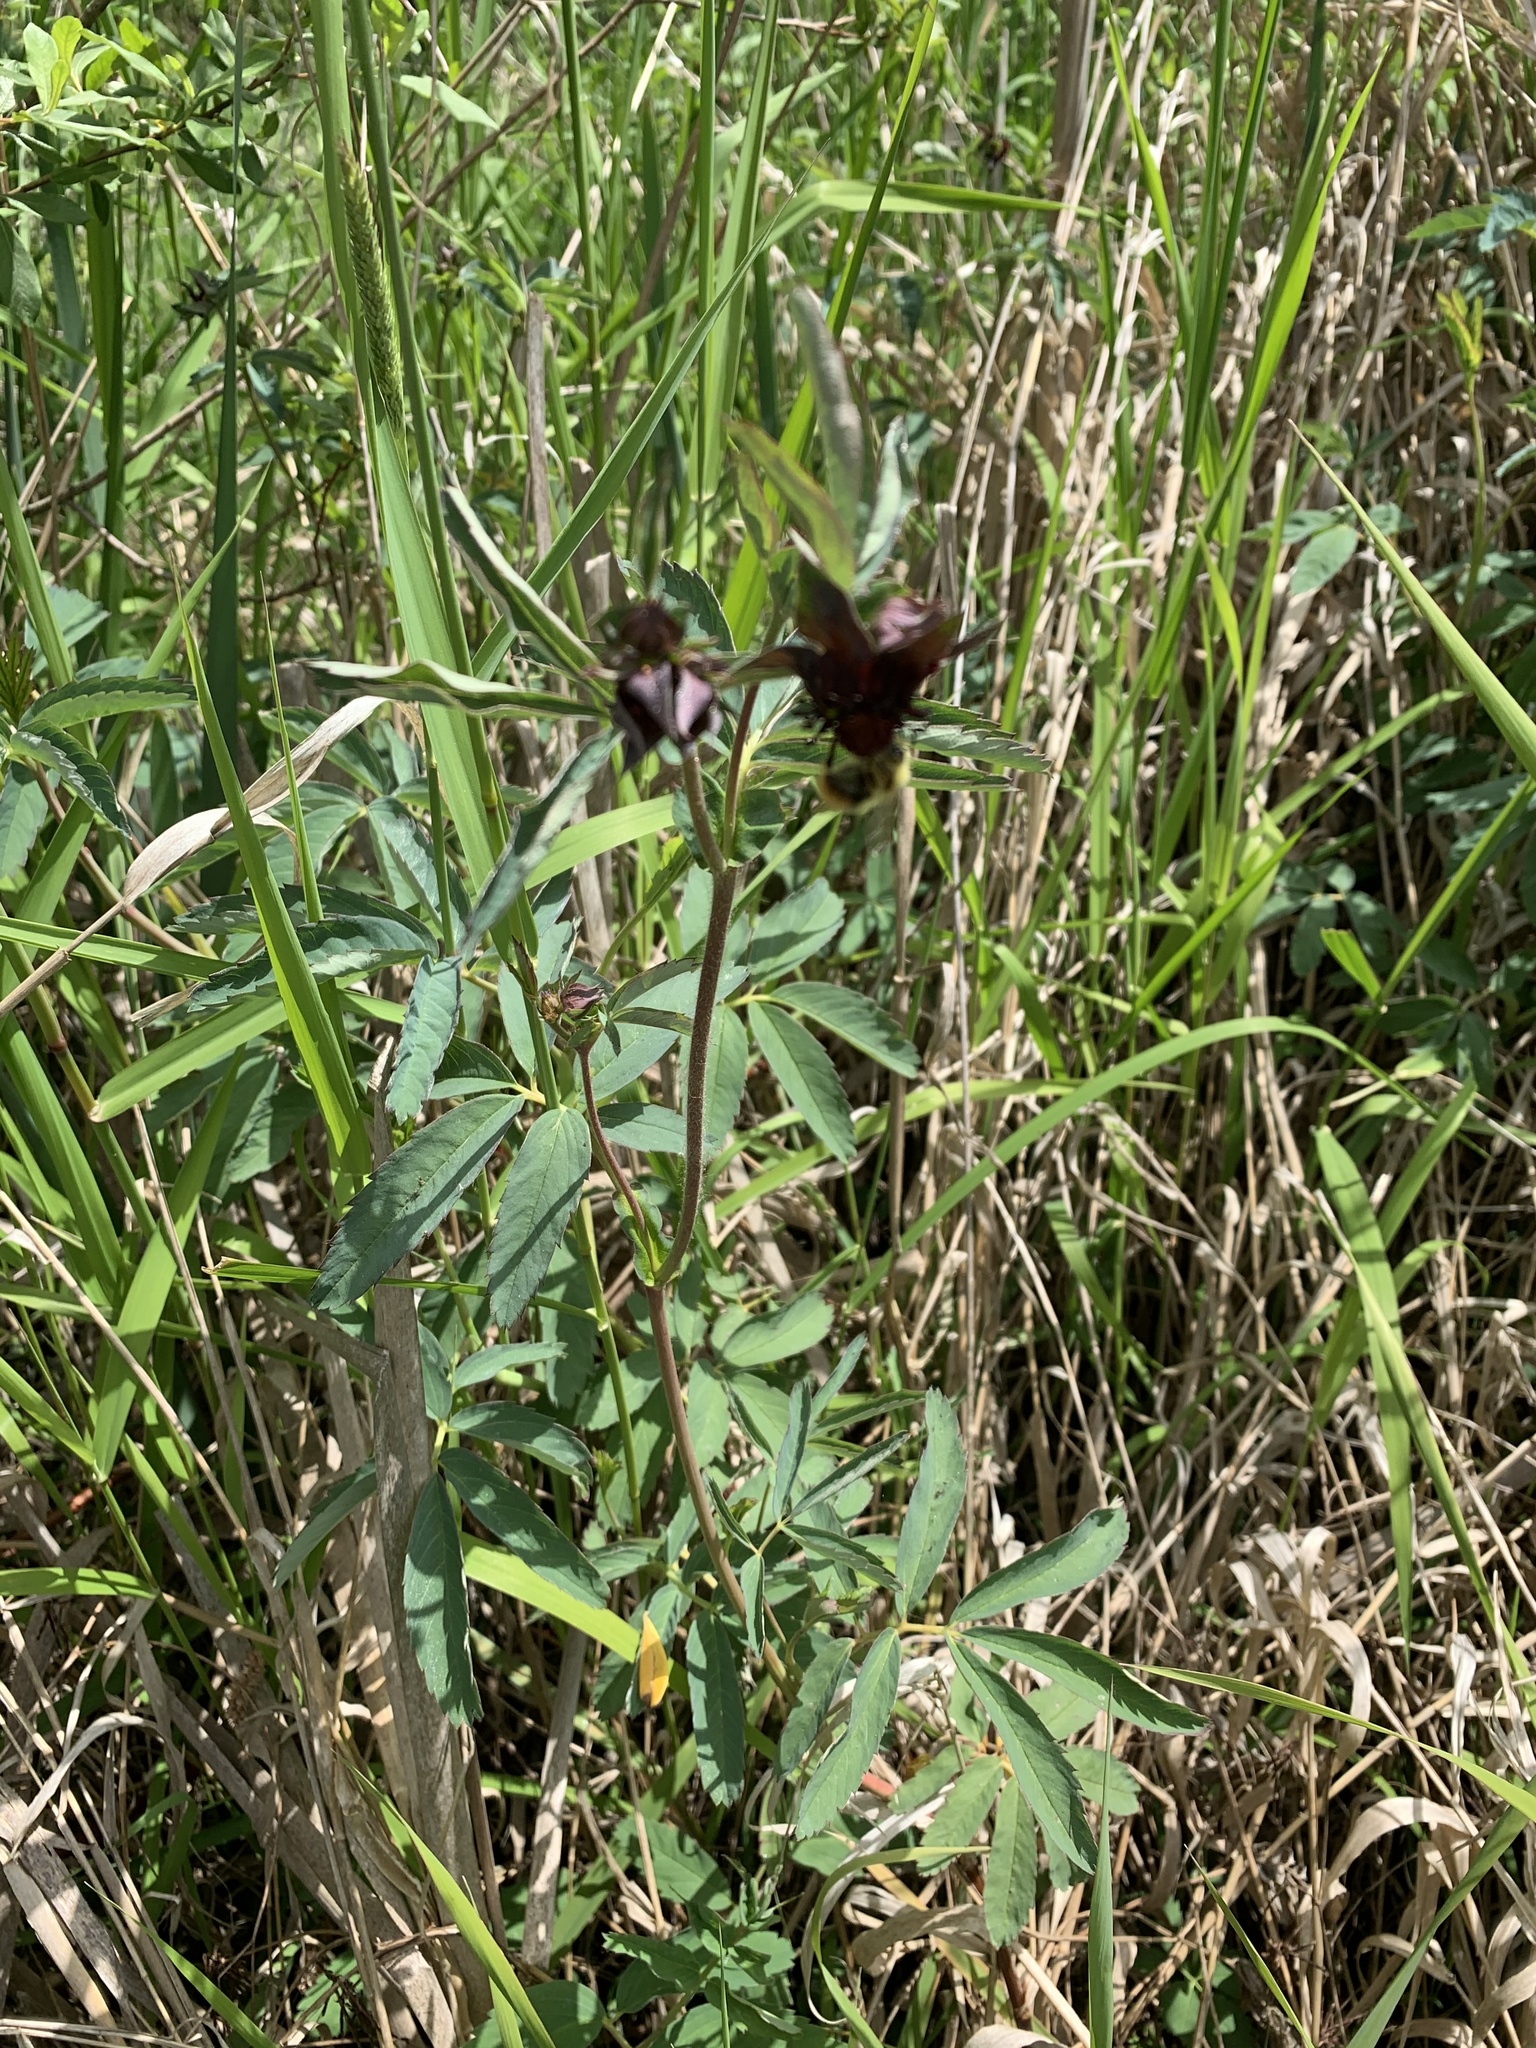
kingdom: Plantae
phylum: Tracheophyta
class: Magnoliopsida
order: Rosales
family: Rosaceae
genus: Comarum
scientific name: Comarum palustre
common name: Marsh cinquefoil
